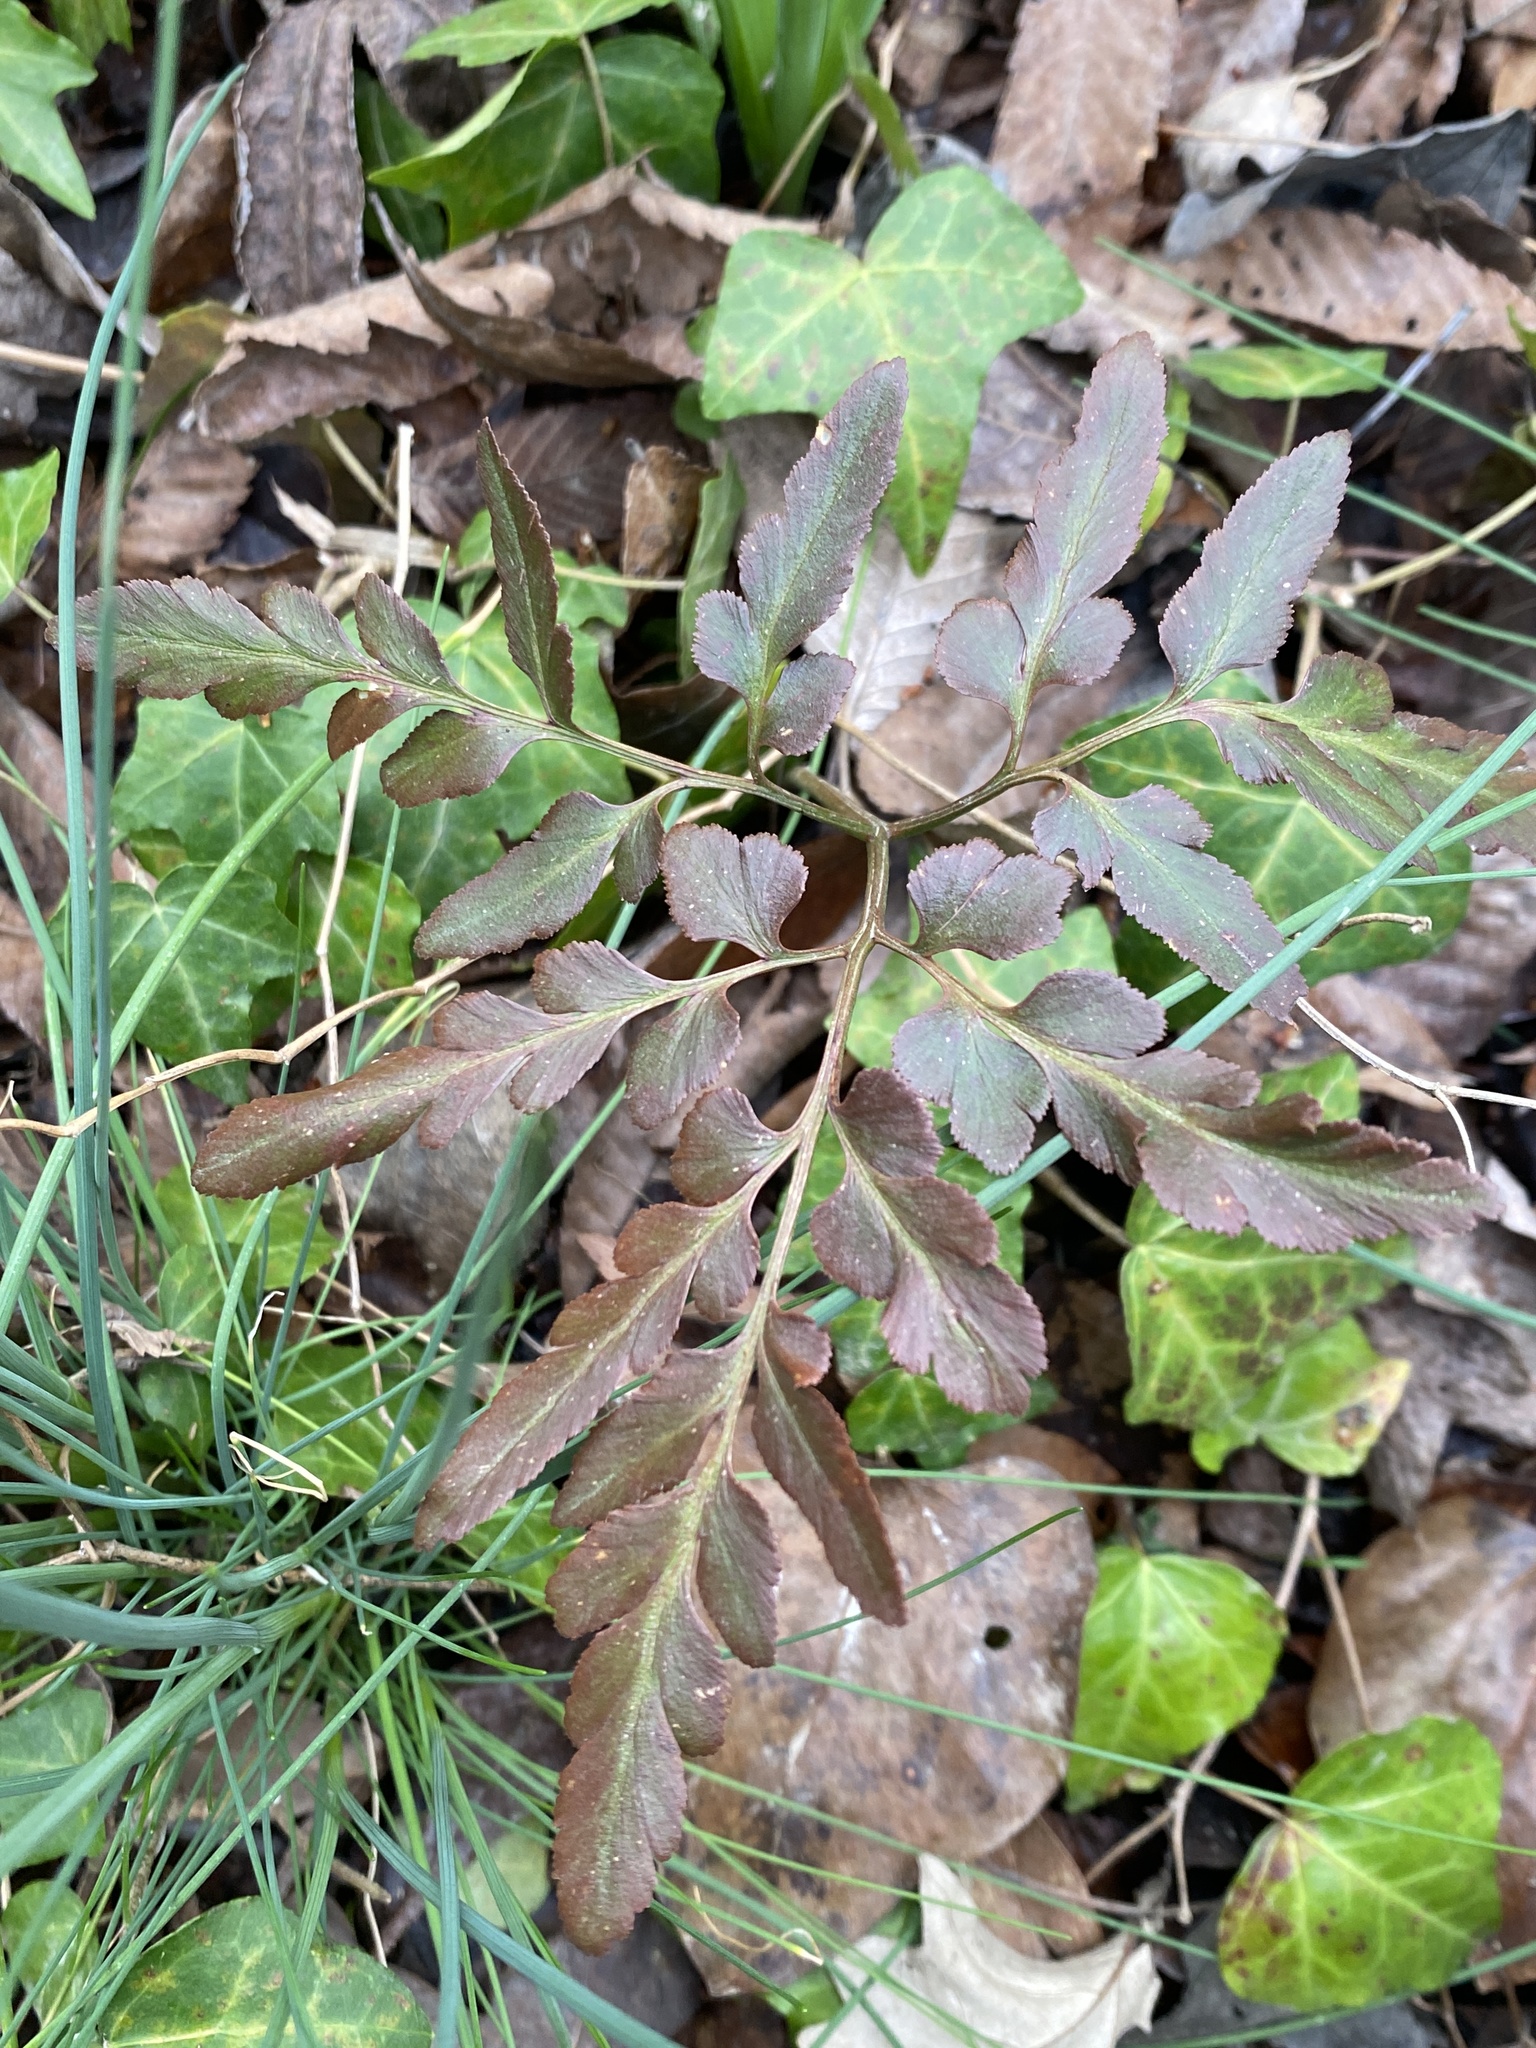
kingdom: Plantae
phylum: Tracheophyta
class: Polypodiopsida
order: Ophioglossales
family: Ophioglossaceae
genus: Sceptridium
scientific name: Sceptridium biternatum
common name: Sparse-lobed grapefern
